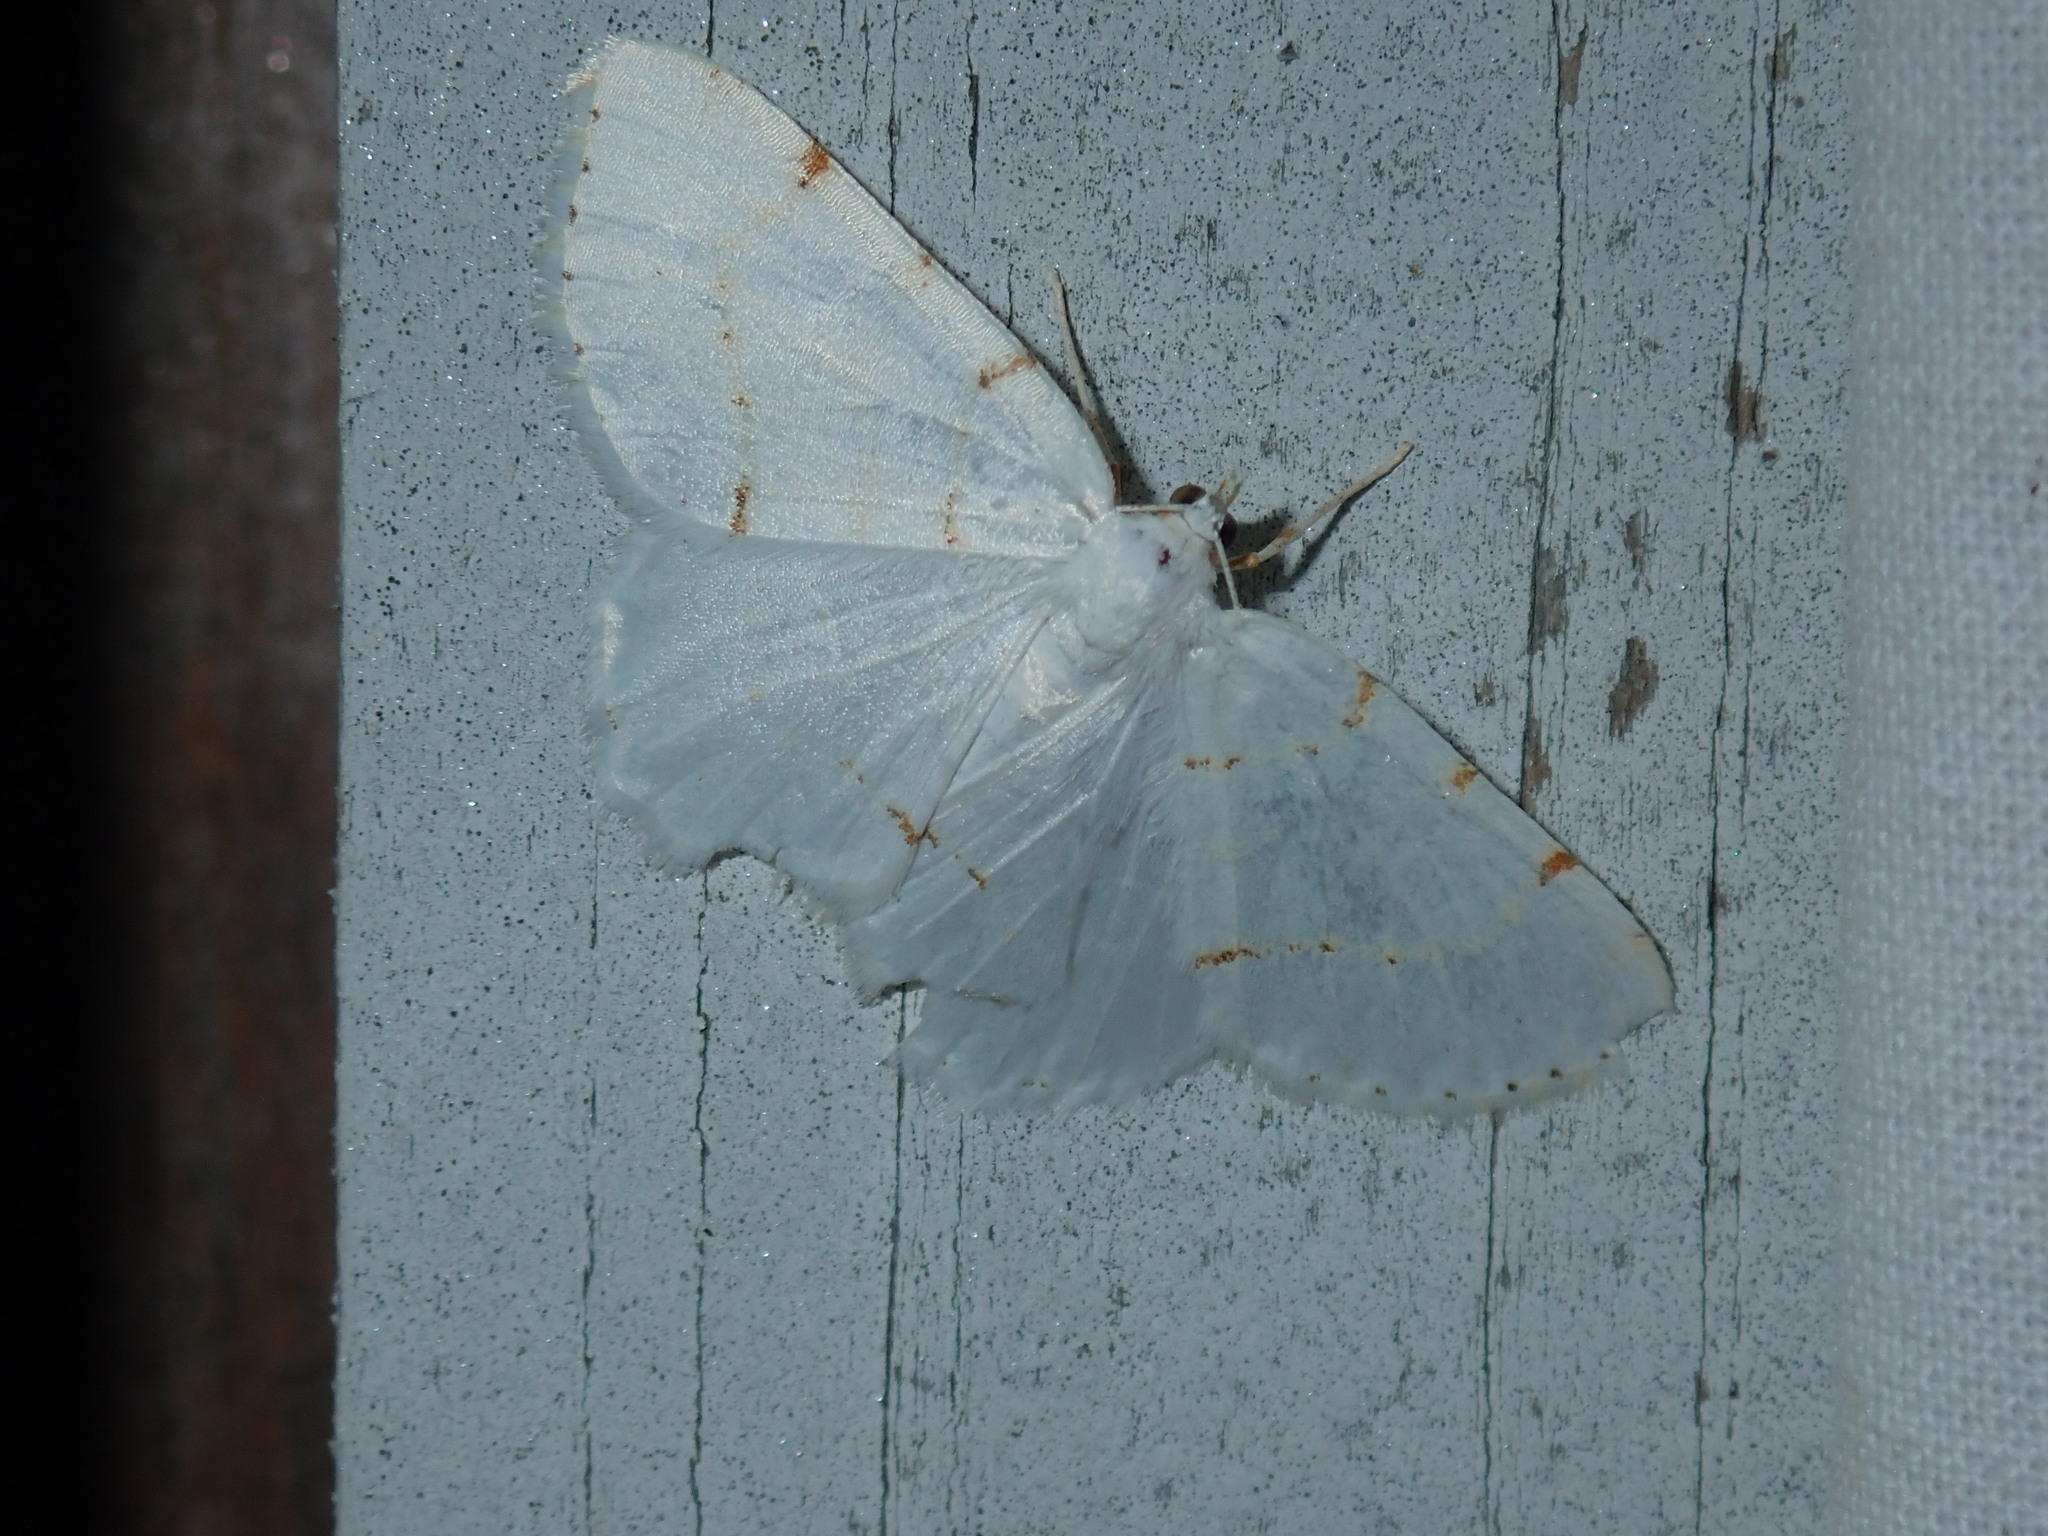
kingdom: Animalia
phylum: Arthropoda
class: Insecta
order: Lepidoptera
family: Geometridae
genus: Macaria
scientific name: Macaria pustularia
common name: Lesser maple spanworm moth
